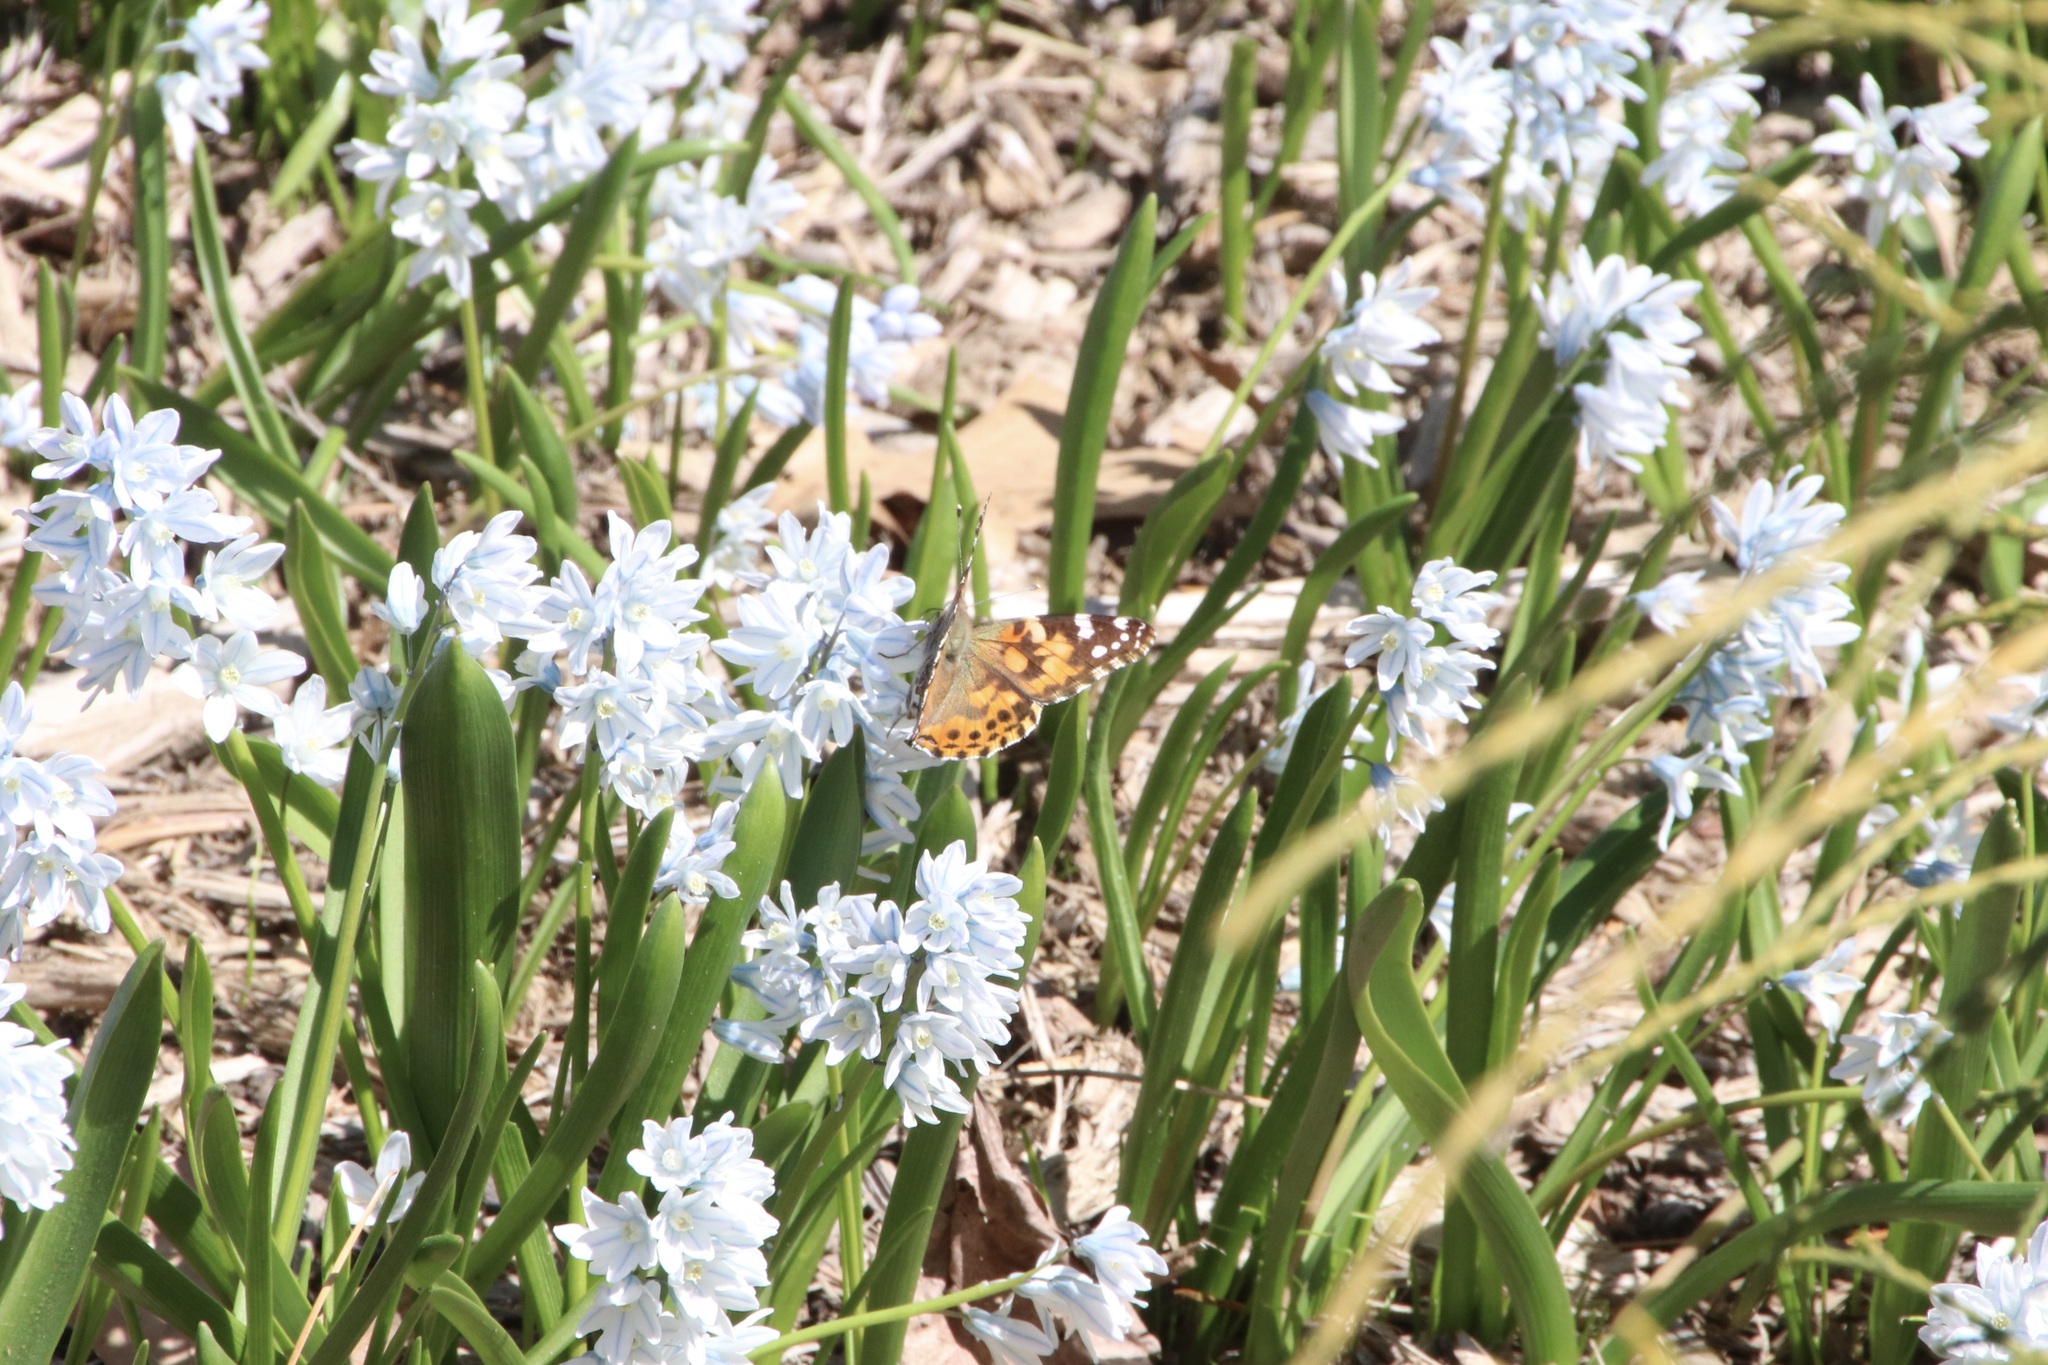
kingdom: Animalia
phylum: Arthropoda
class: Insecta
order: Lepidoptera
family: Nymphalidae
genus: Vanessa
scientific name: Vanessa cardui
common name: Painted lady
